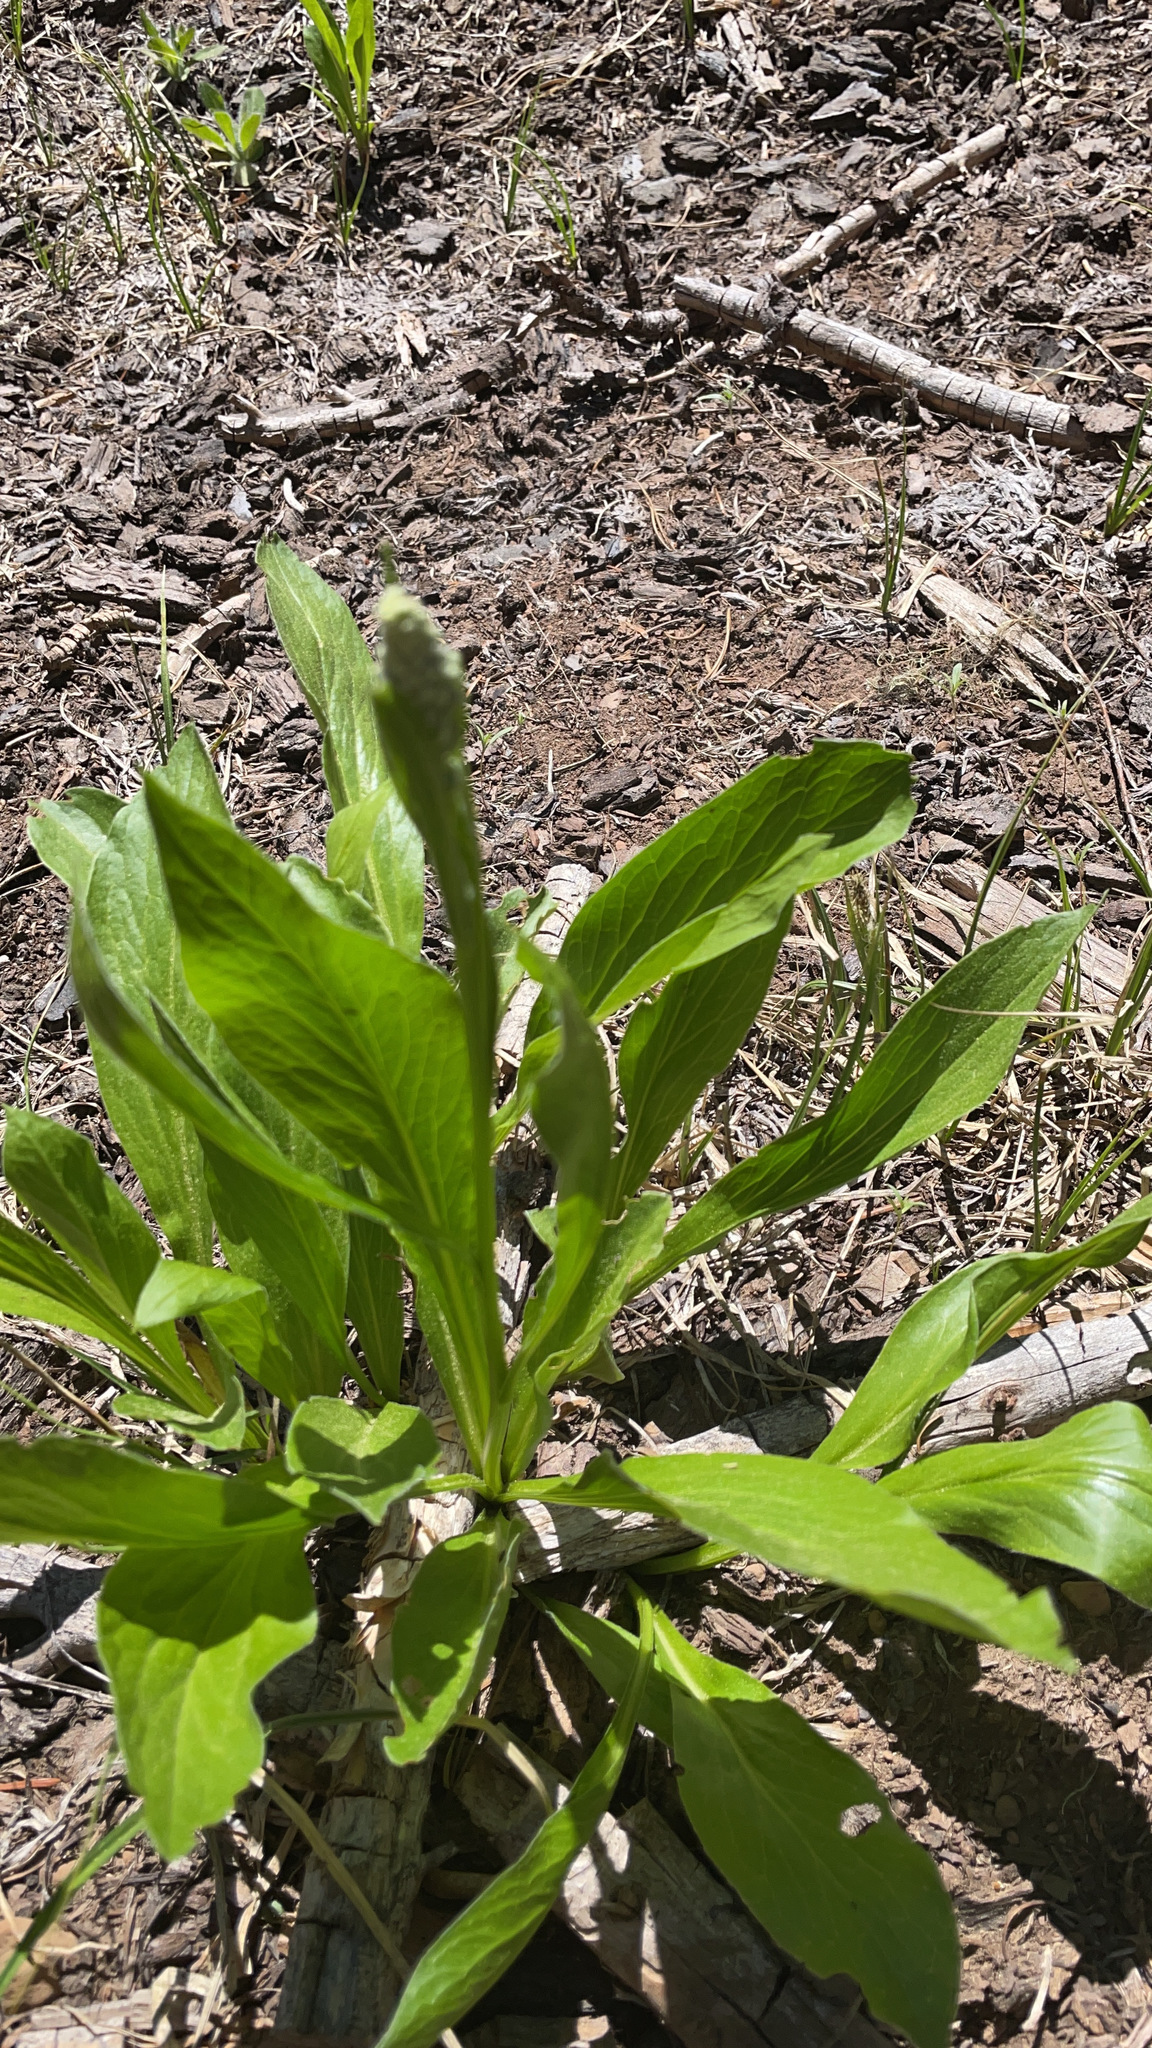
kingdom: Plantae
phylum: Tracheophyta
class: Magnoliopsida
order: Asterales
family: Asteraceae
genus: Rainiera
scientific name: Rainiera stricta
